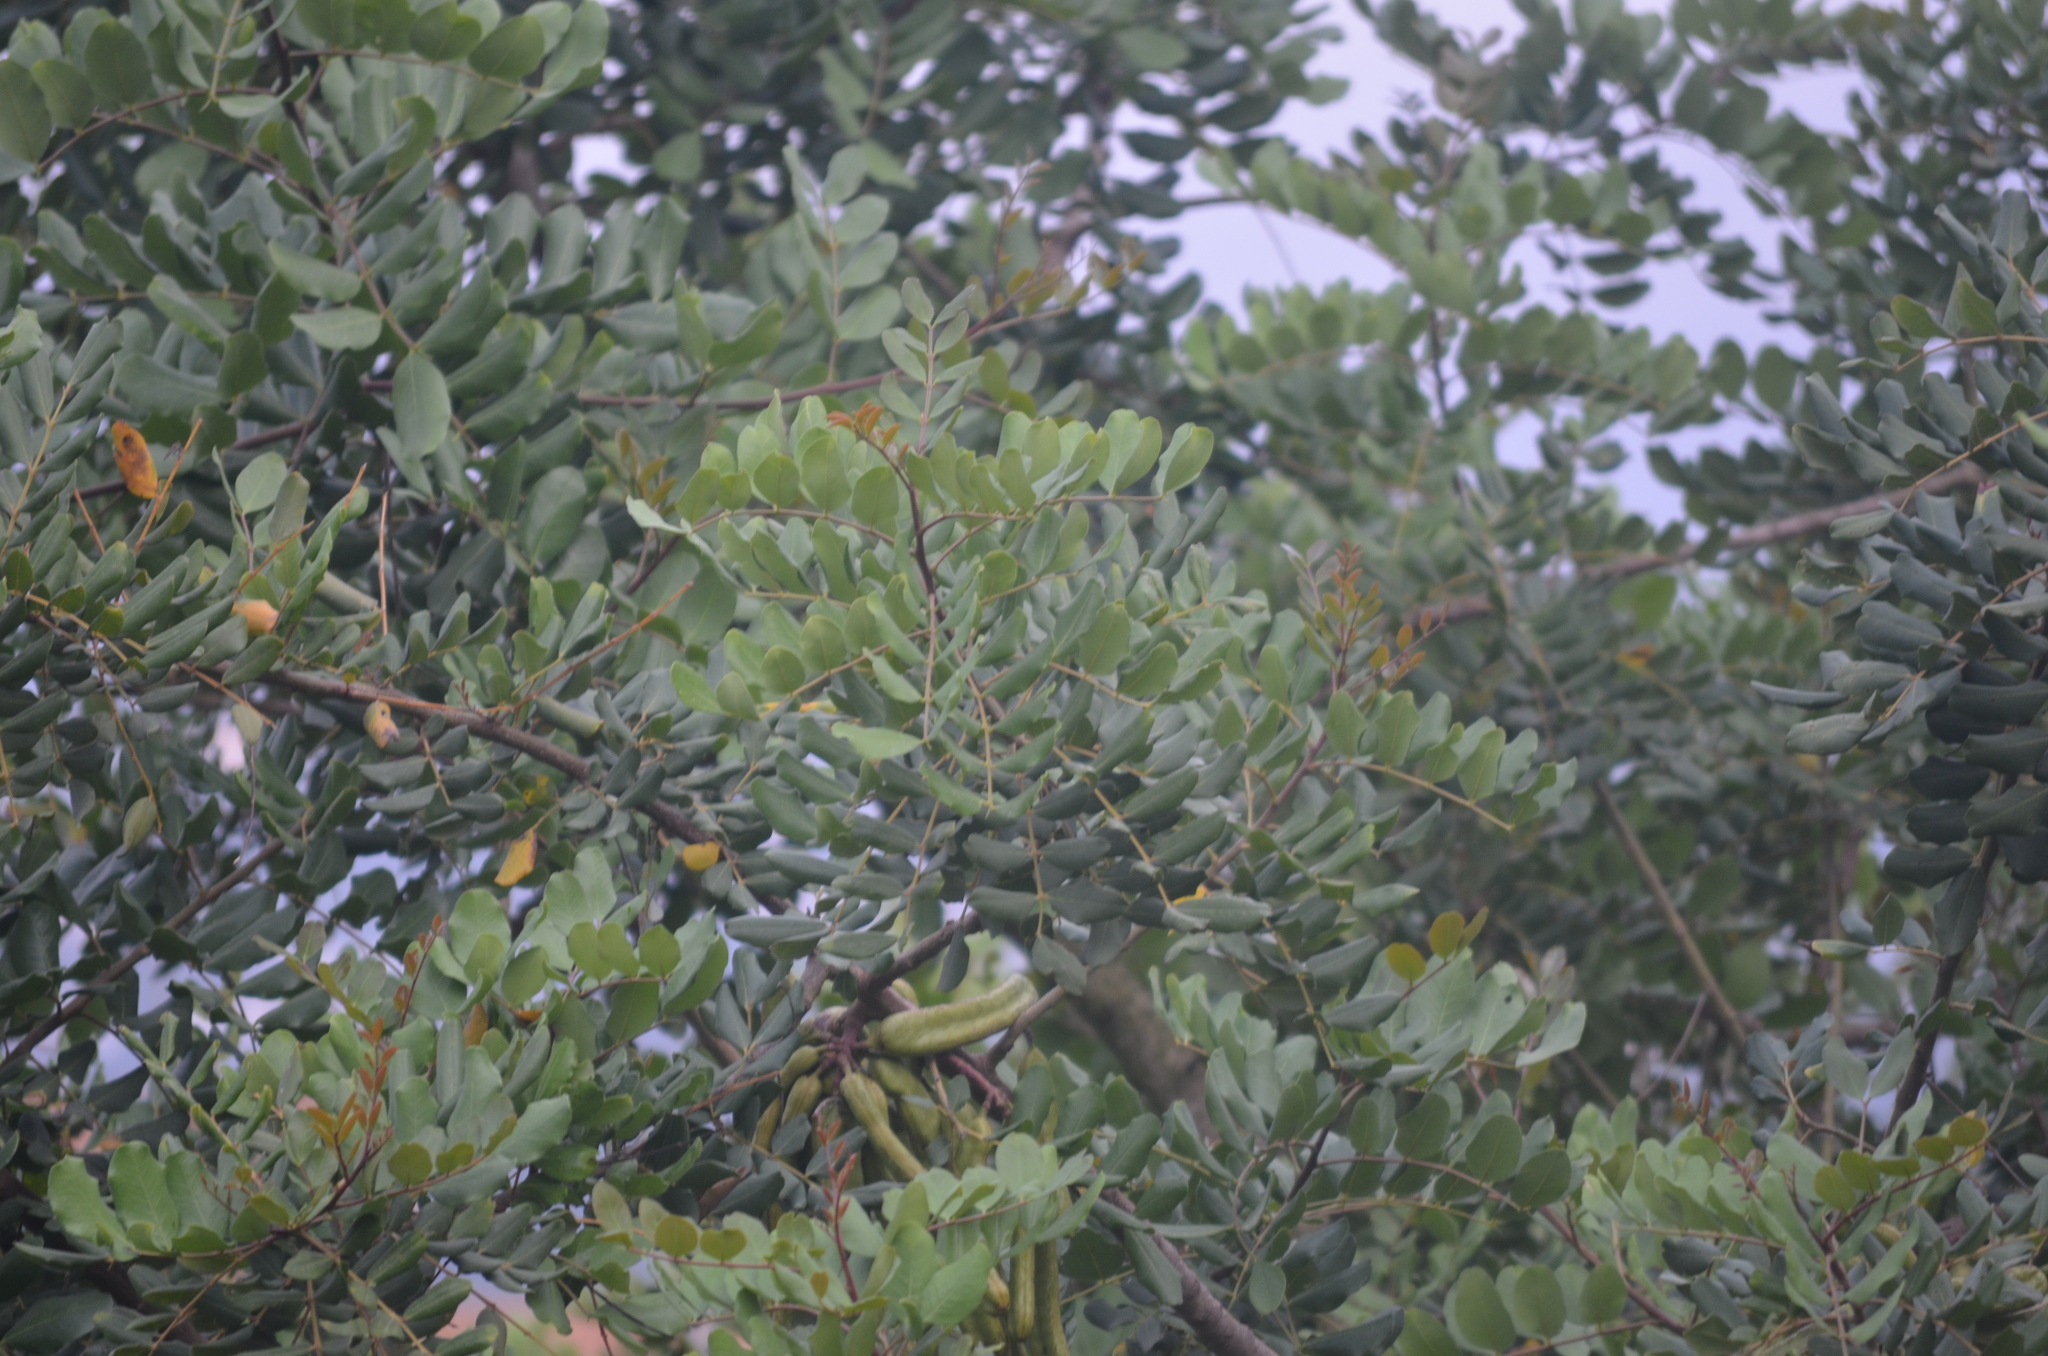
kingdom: Plantae
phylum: Tracheophyta
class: Magnoliopsida
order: Fabales
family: Fabaceae
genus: Ceratonia
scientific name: Ceratonia siliqua
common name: Carob
